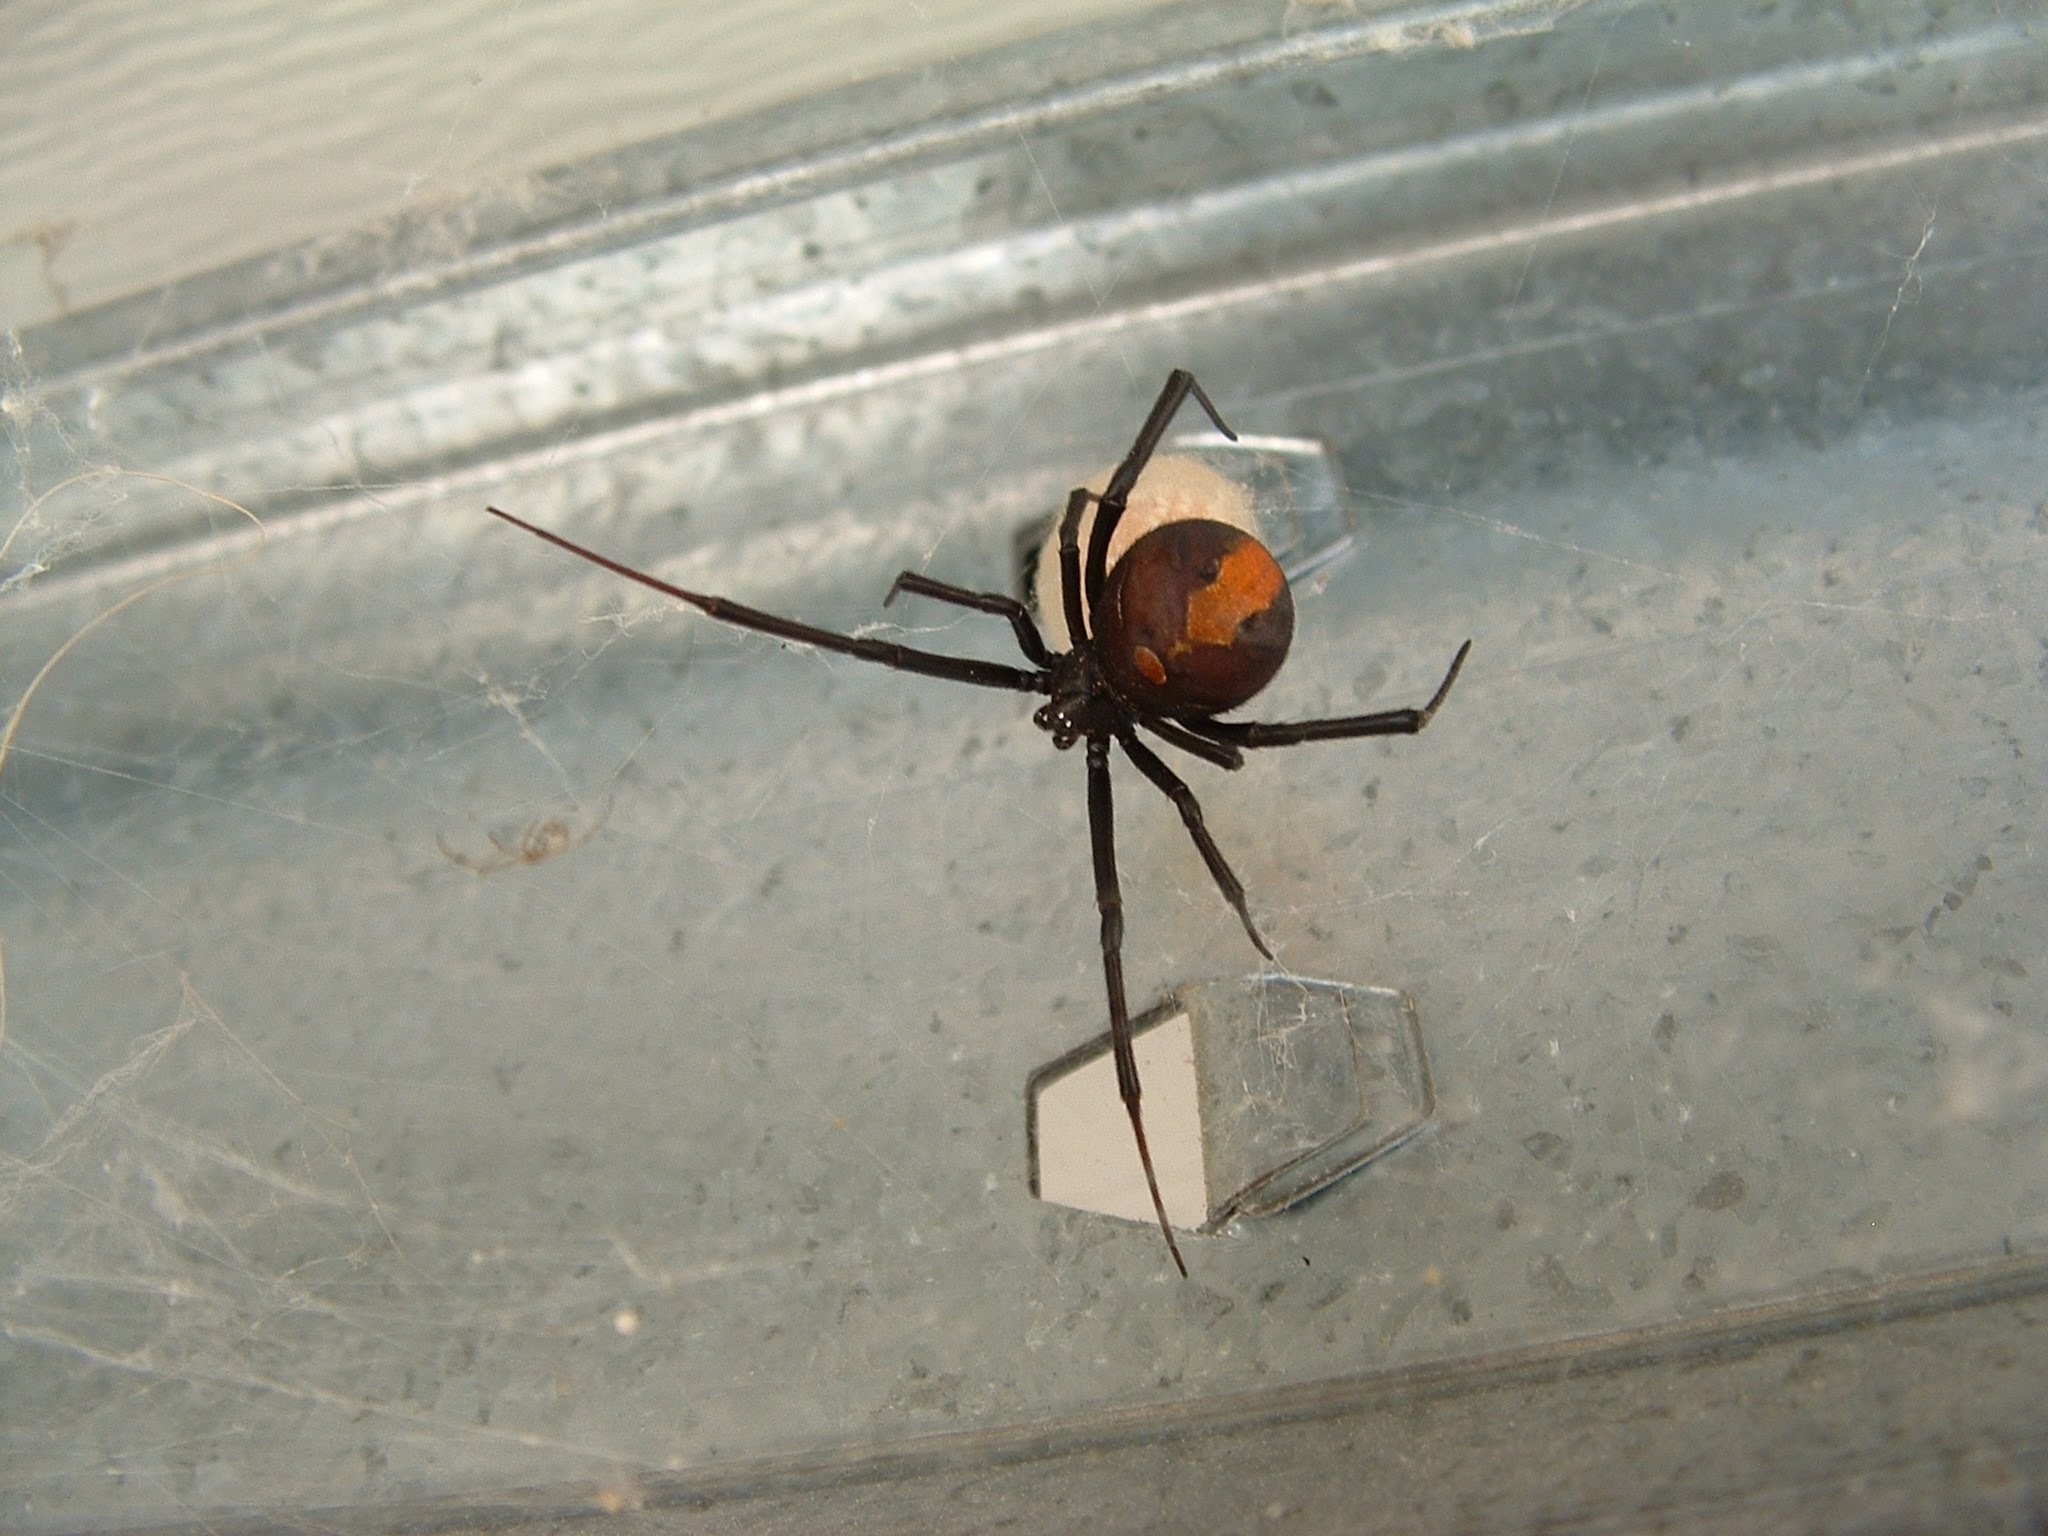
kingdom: Animalia
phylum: Arthropoda
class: Arachnida
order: Araneae
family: Theridiidae
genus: Latrodectus
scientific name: Latrodectus hasselti
